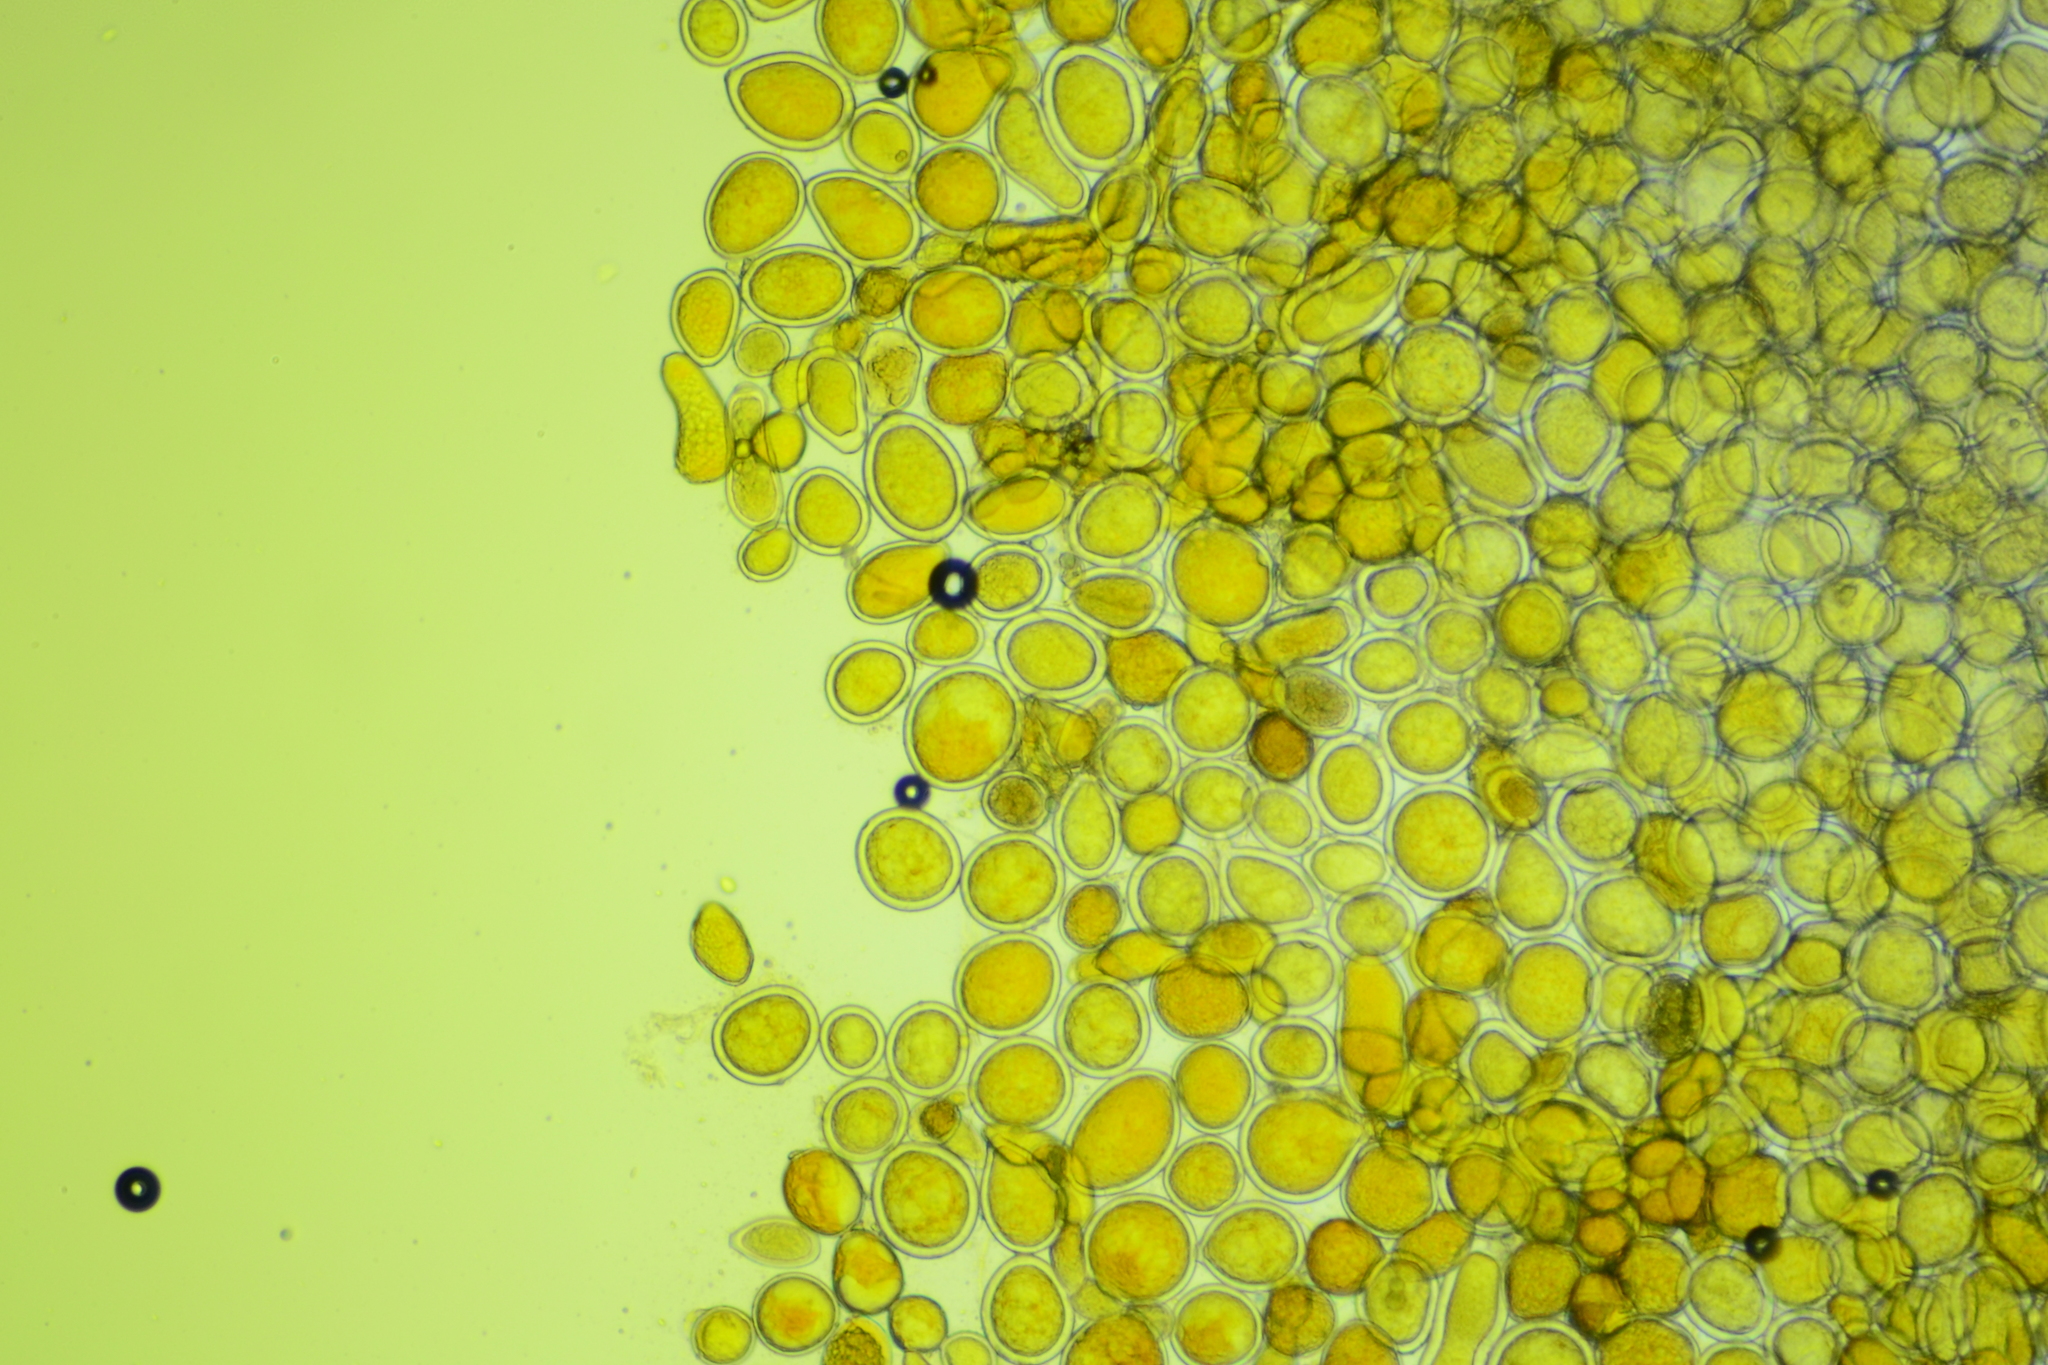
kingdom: Fungi
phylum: Ascomycota
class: Pezizomycetes
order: Pezizales
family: Pyronemataceae
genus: Sphaerosporium
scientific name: Sphaerosporium lignatile
